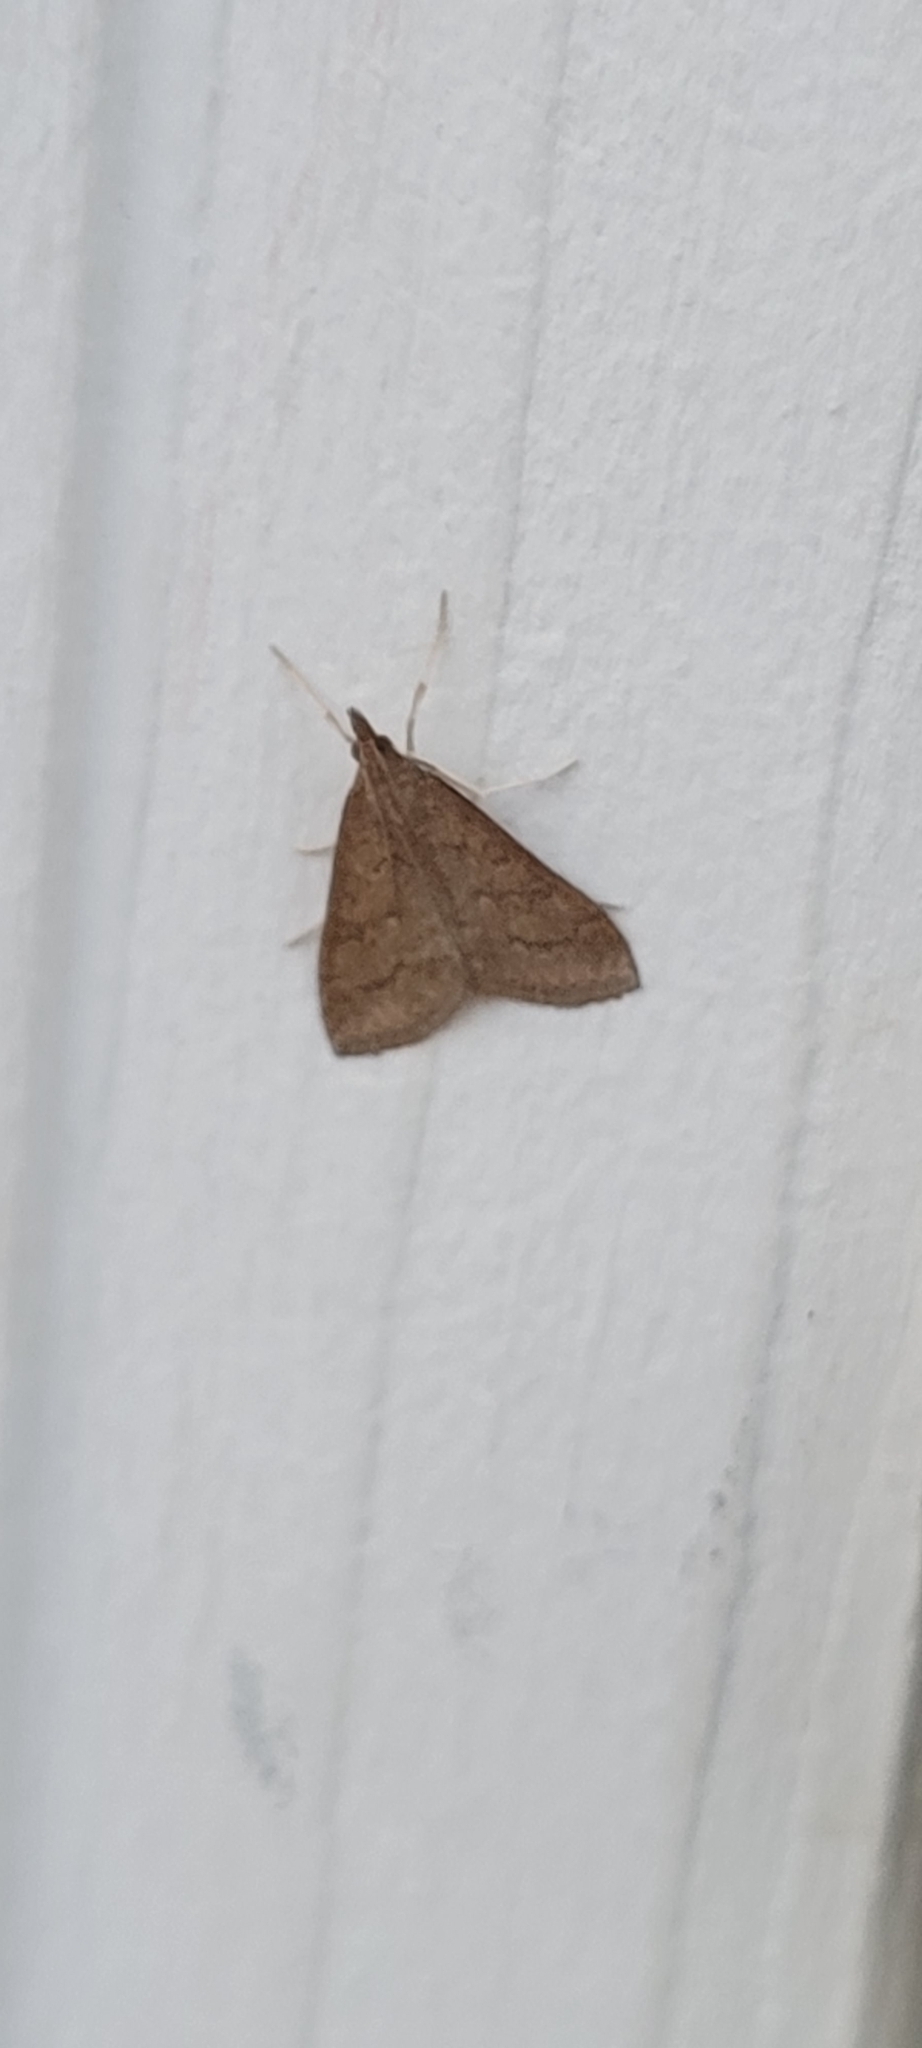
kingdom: Animalia
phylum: Arthropoda
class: Insecta
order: Lepidoptera
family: Crambidae
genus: Udea
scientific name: Udea rubigalis
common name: Celery leaftier moth
